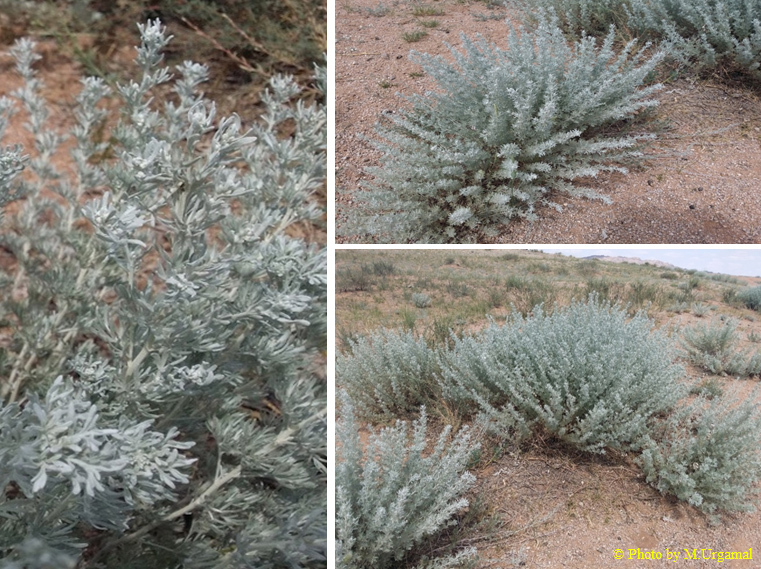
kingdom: Plantae
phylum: Tracheophyta
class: Magnoliopsida
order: Asterales
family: Asteraceae
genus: Artemisia
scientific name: Artemisia rutifolia
